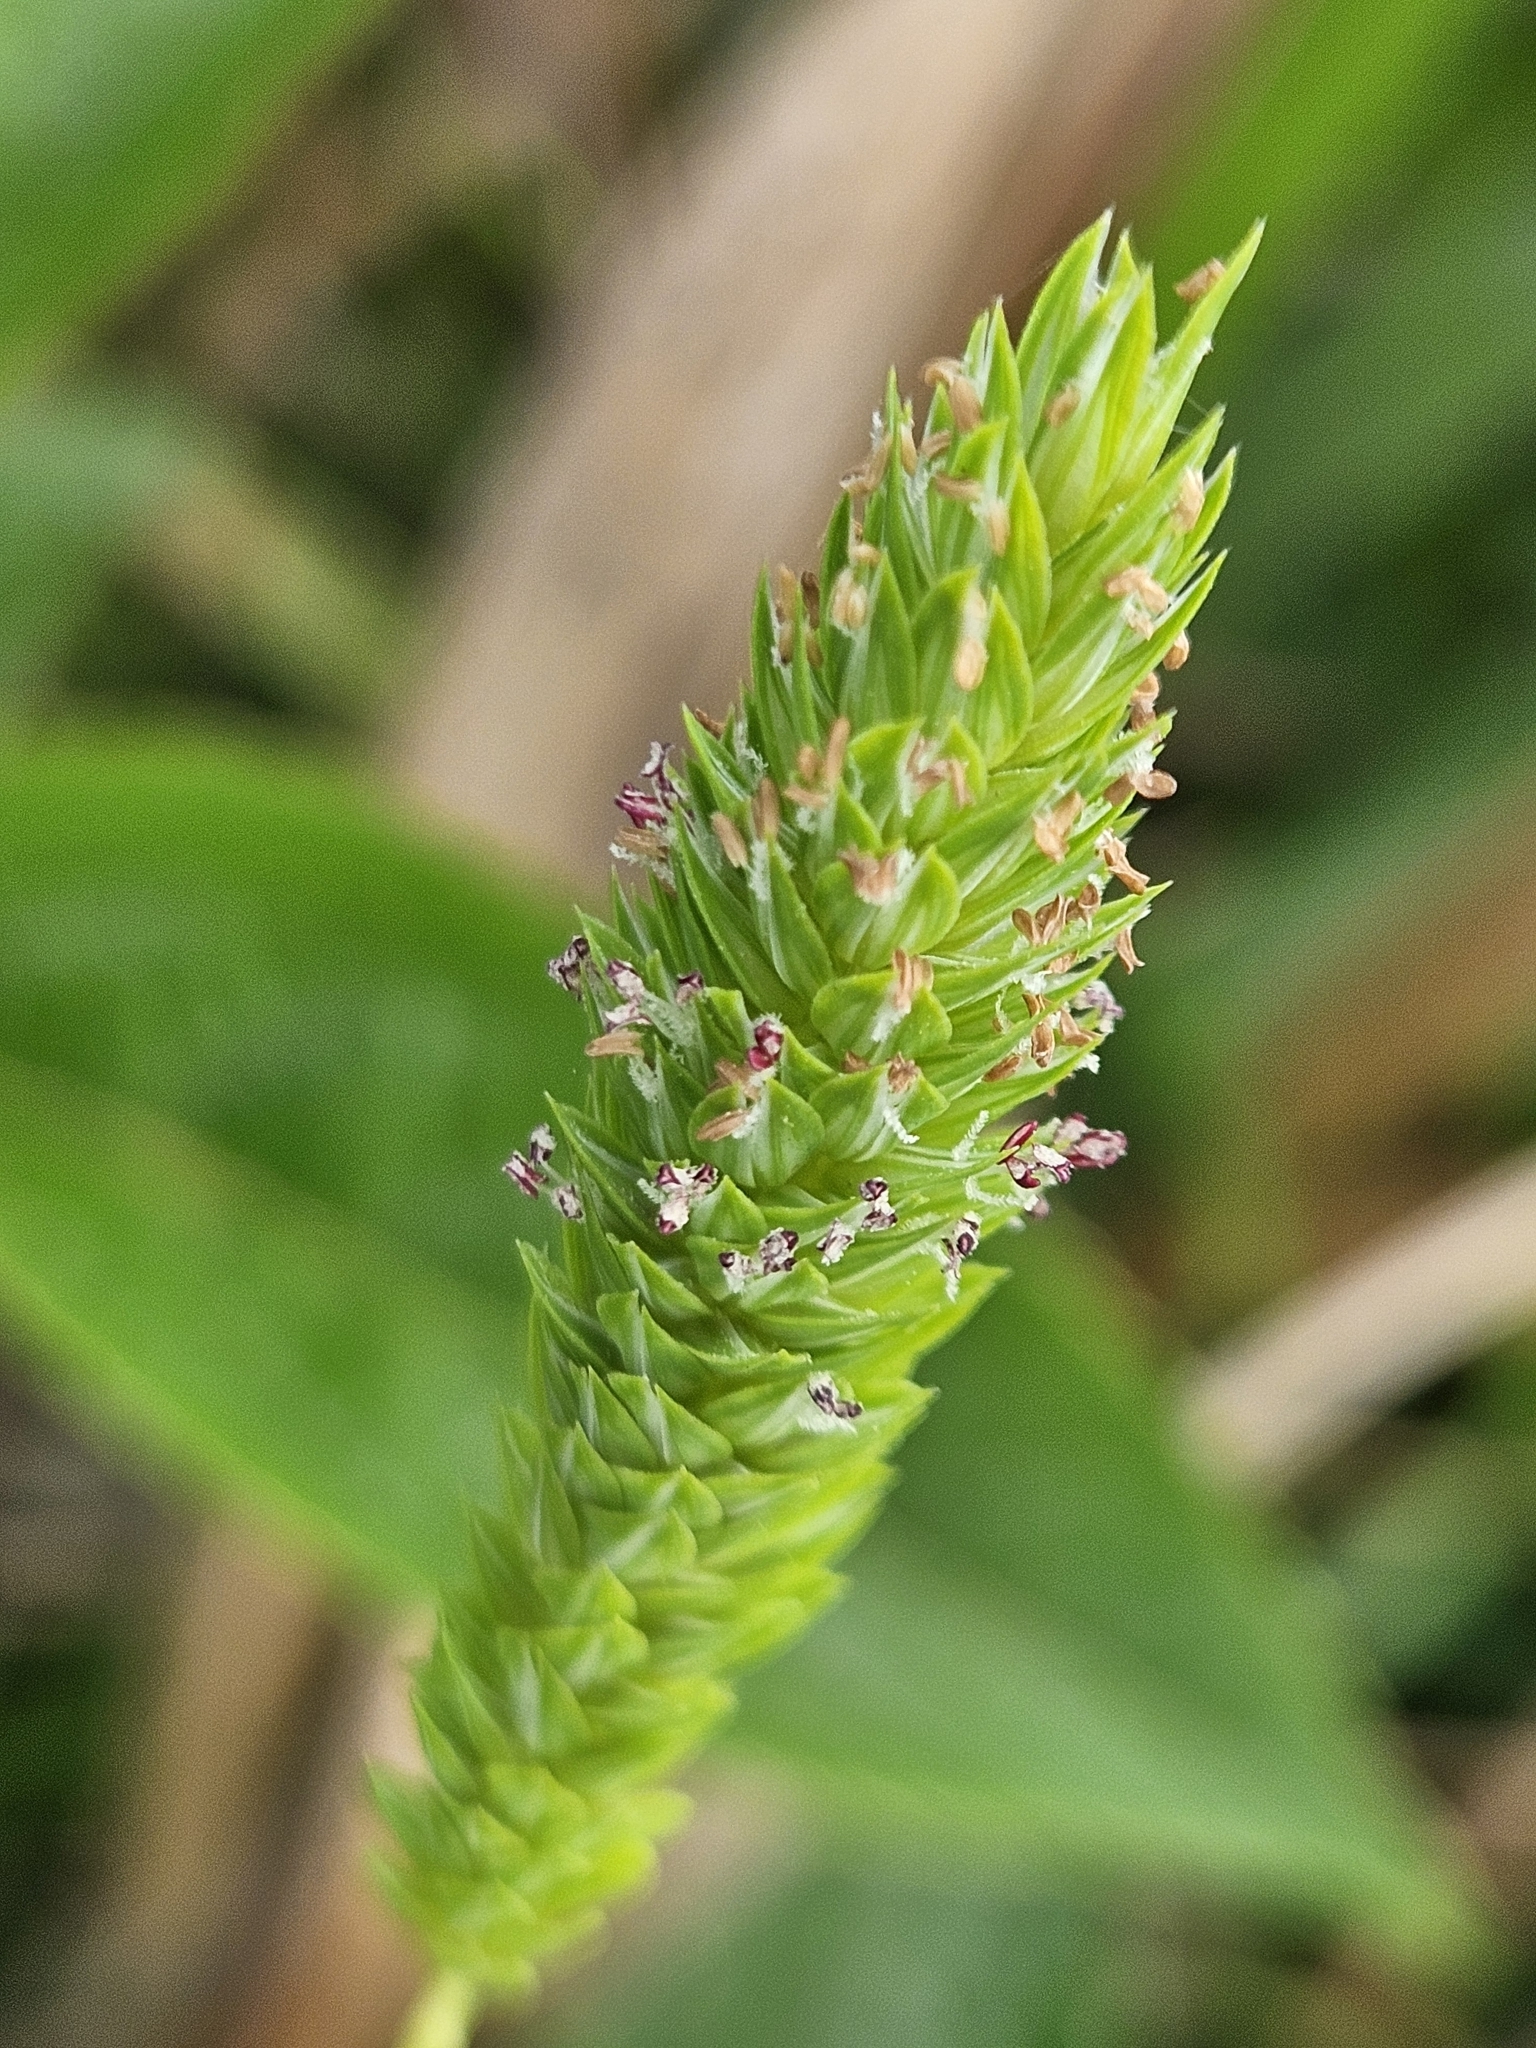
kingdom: Plantae
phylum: Tracheophyta
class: Liliopsida
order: Poales
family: Poaceae
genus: Phalaris
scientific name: Phalaris caroliniana
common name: May grass
